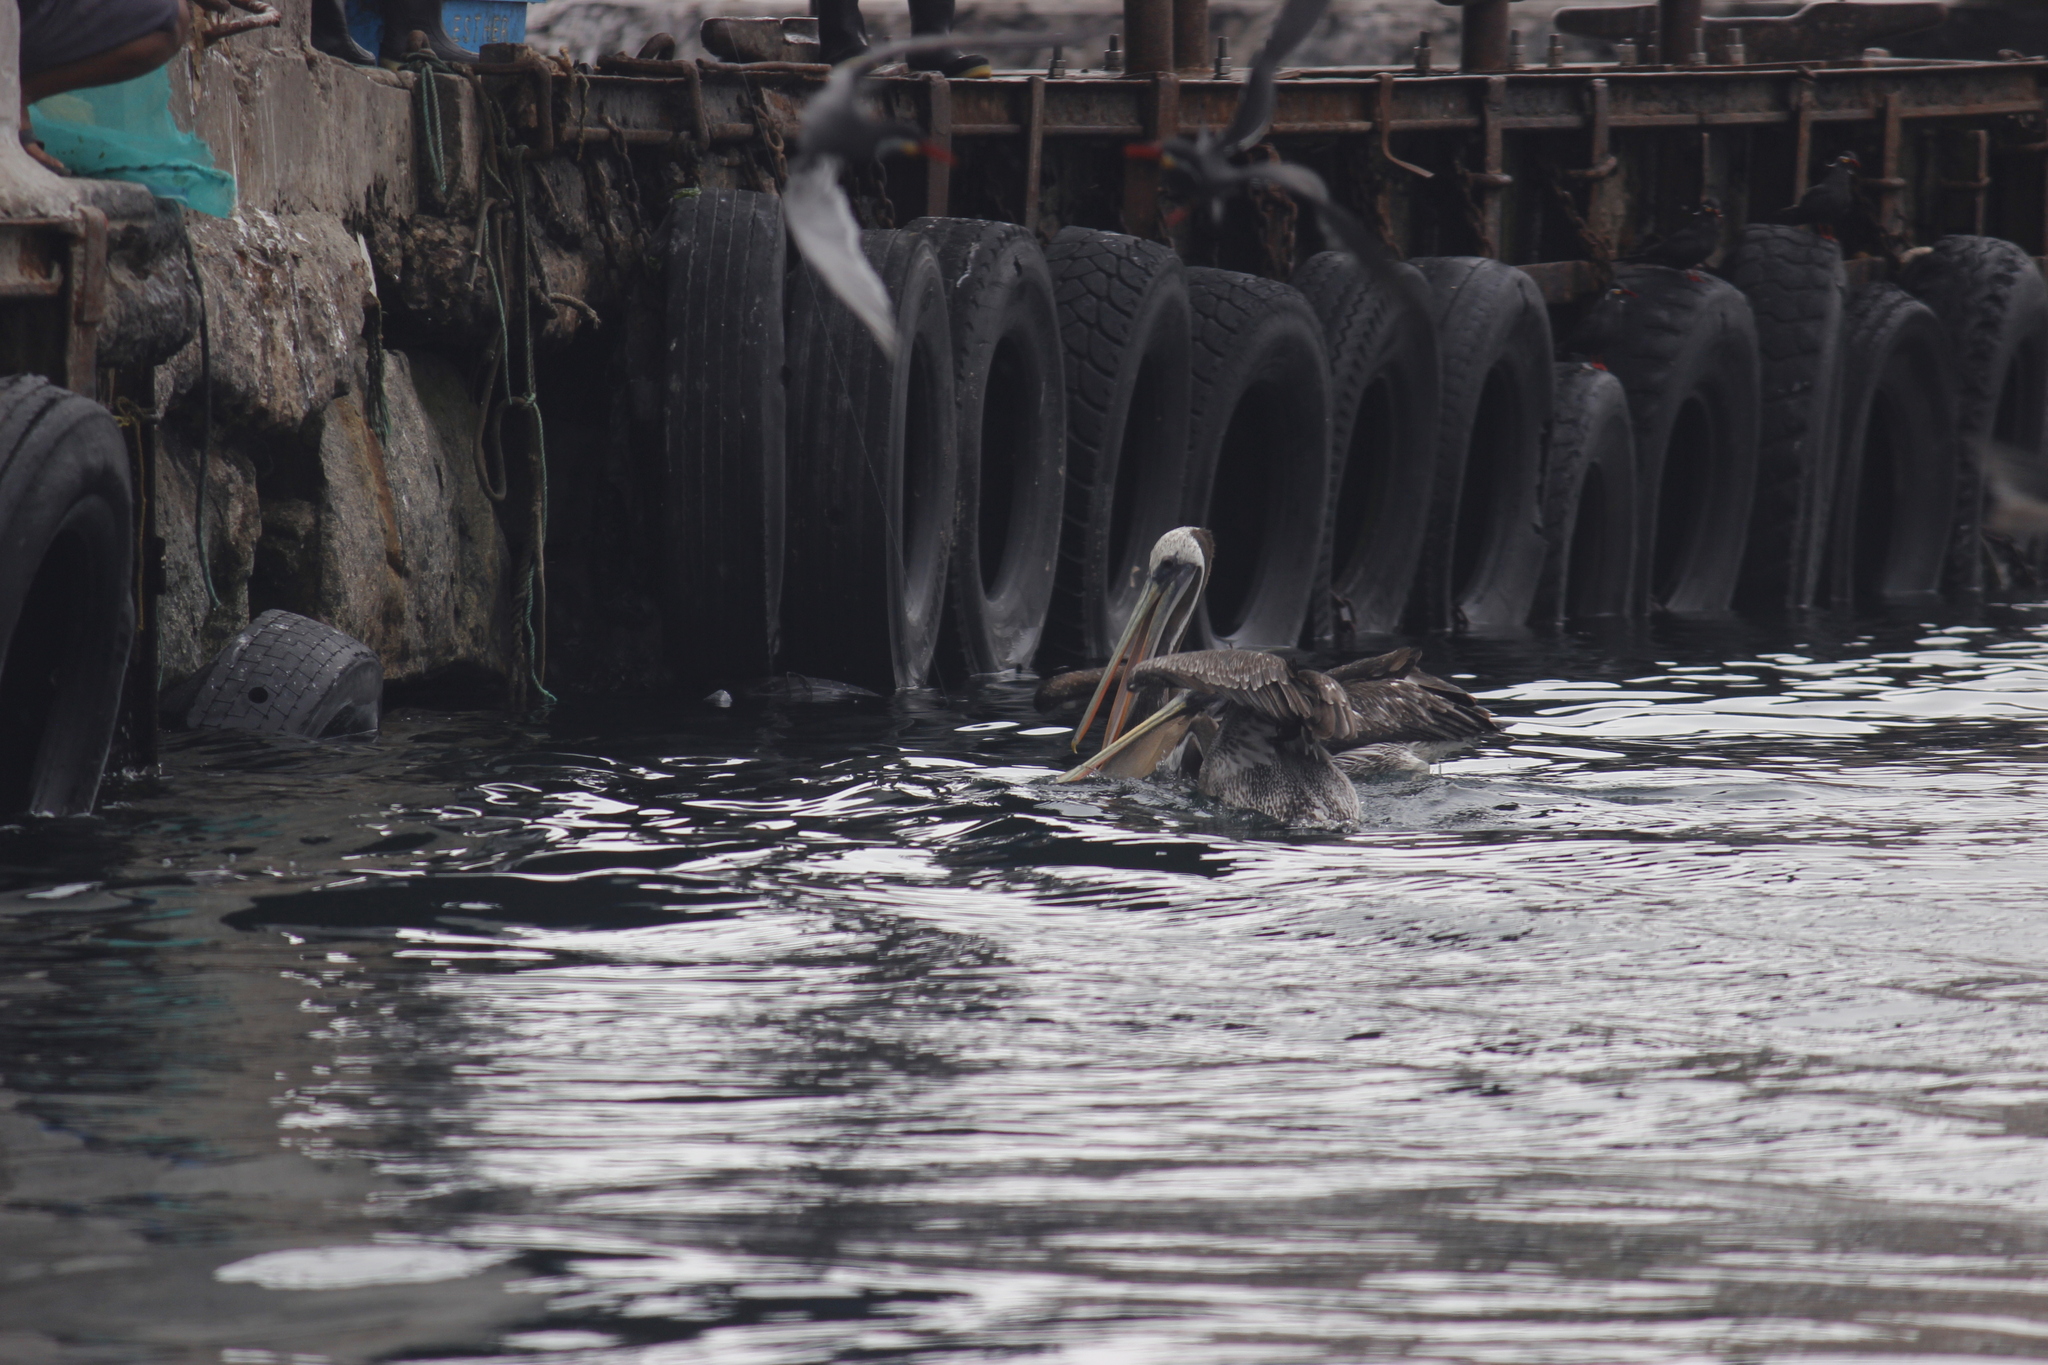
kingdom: Animalia
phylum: Chordata
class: Aves
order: Pelecaniformes
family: Pelecanidae
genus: Pelecanus
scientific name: Pelecanus thagus
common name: Peruvian pelican
